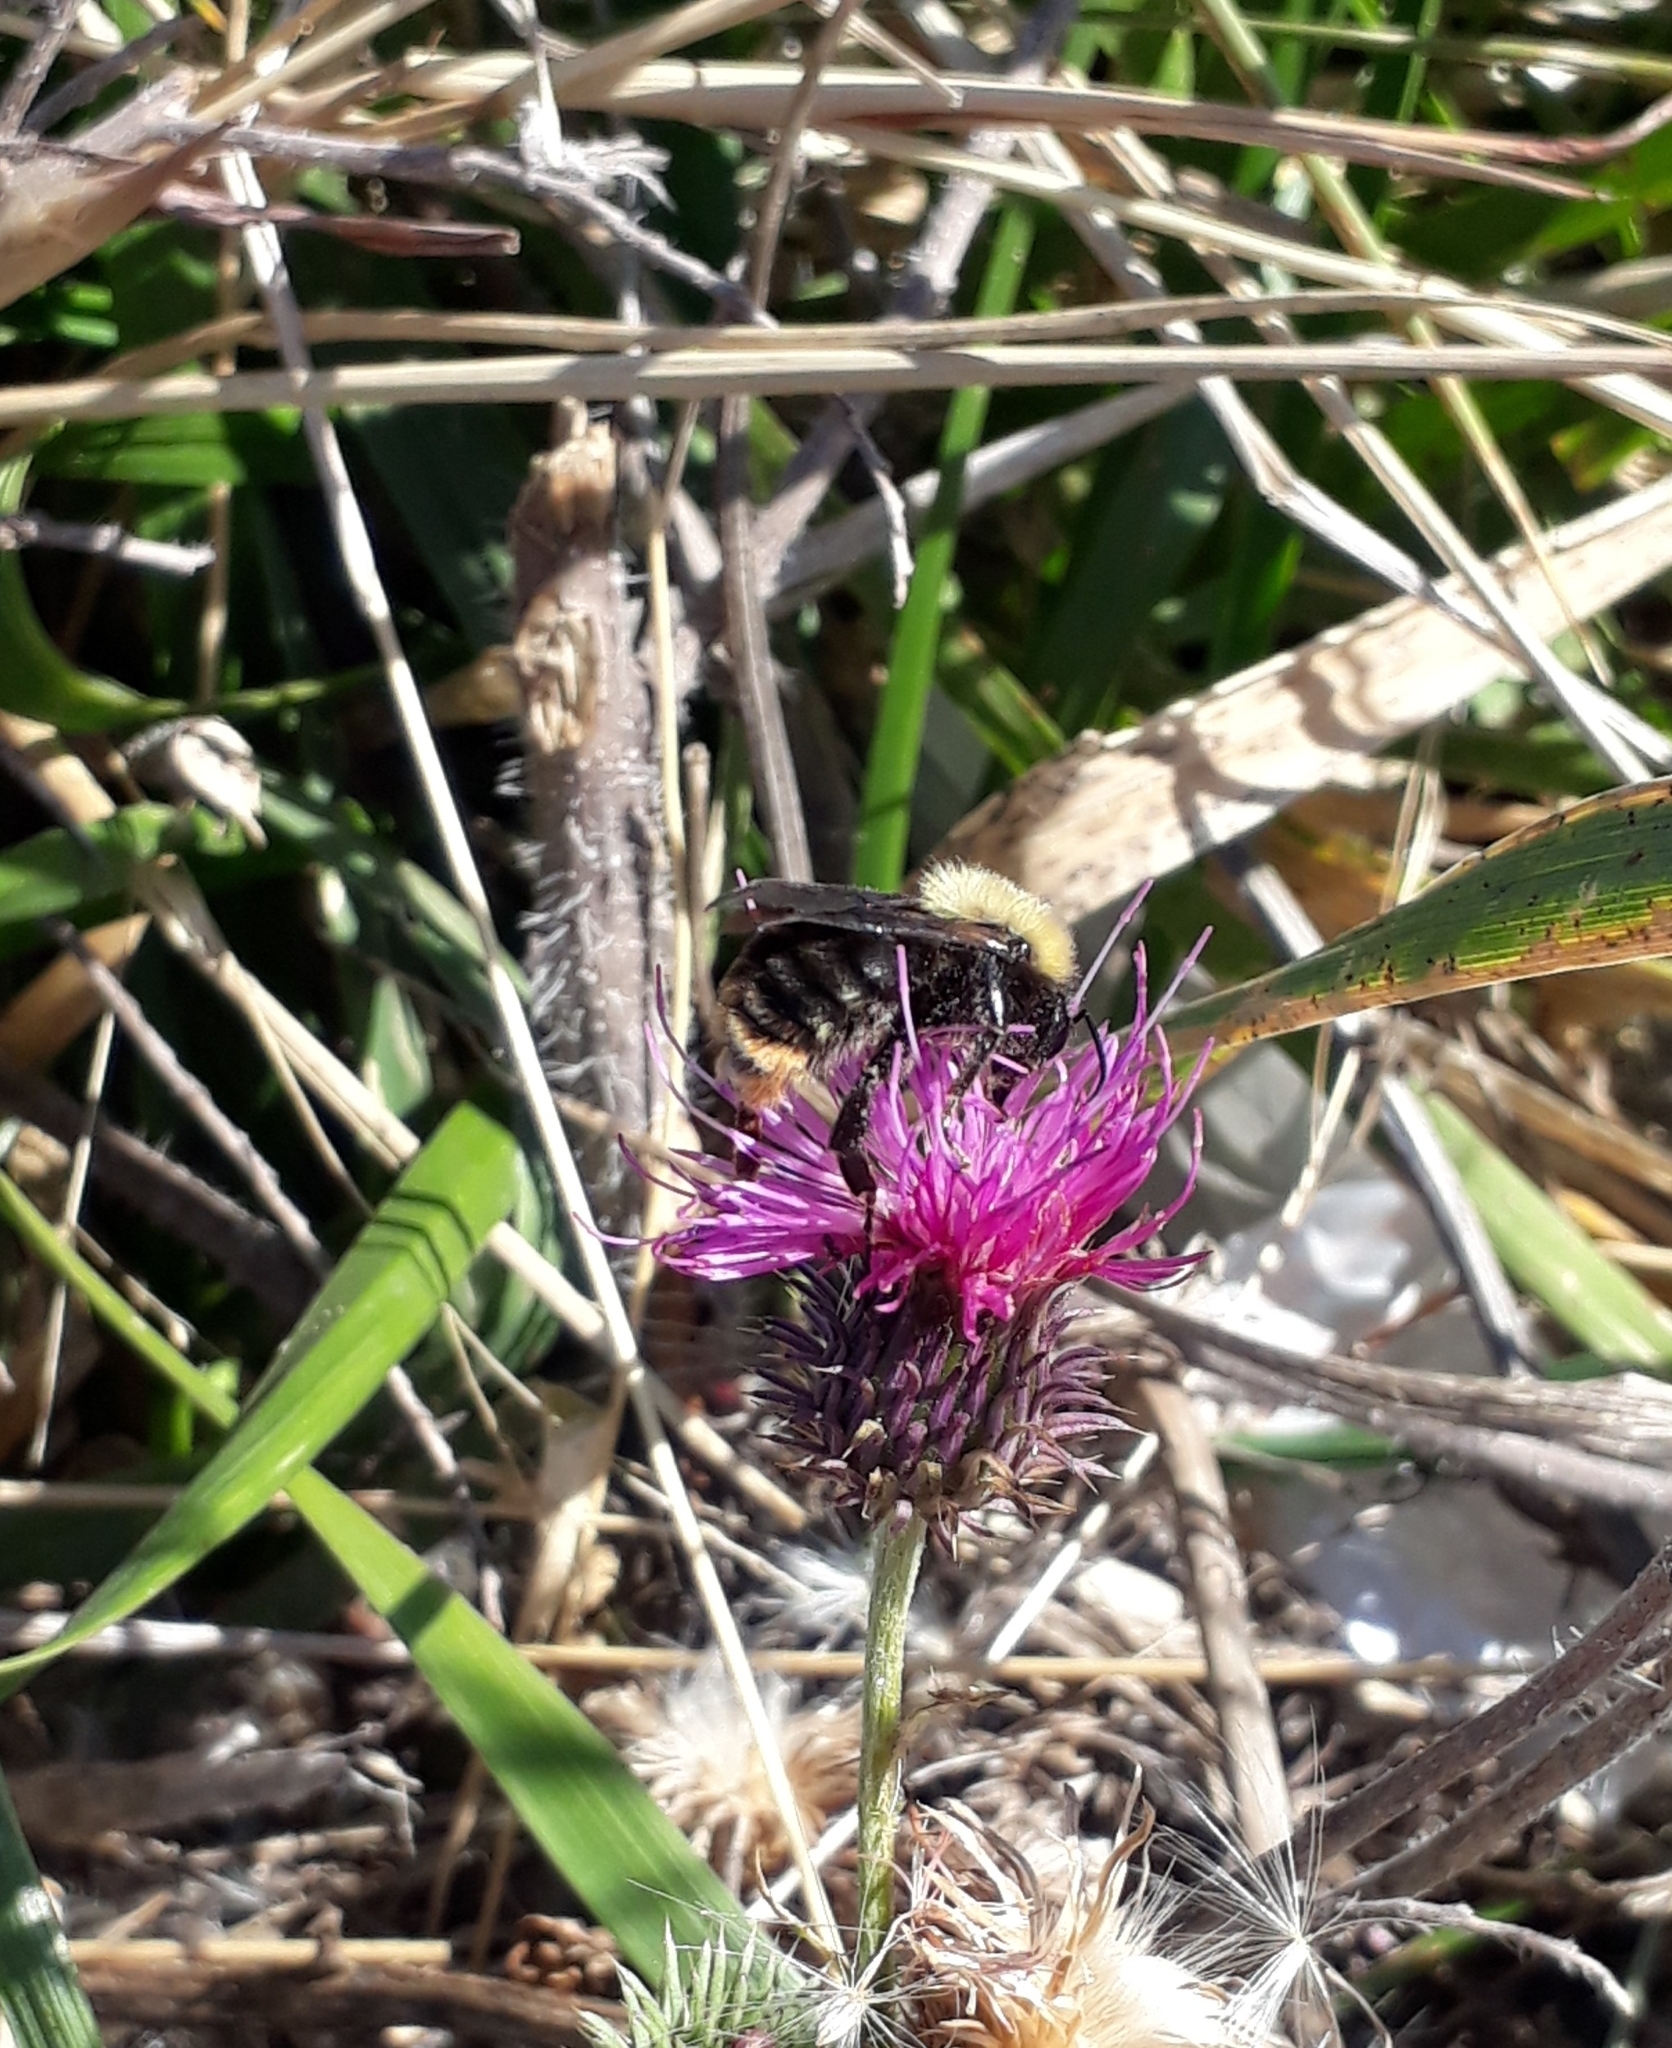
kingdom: Animalia
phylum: Arthropoda
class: Insecta
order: Hymenoptera
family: Apidae
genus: Bombus
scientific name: Bombus bellicosus
